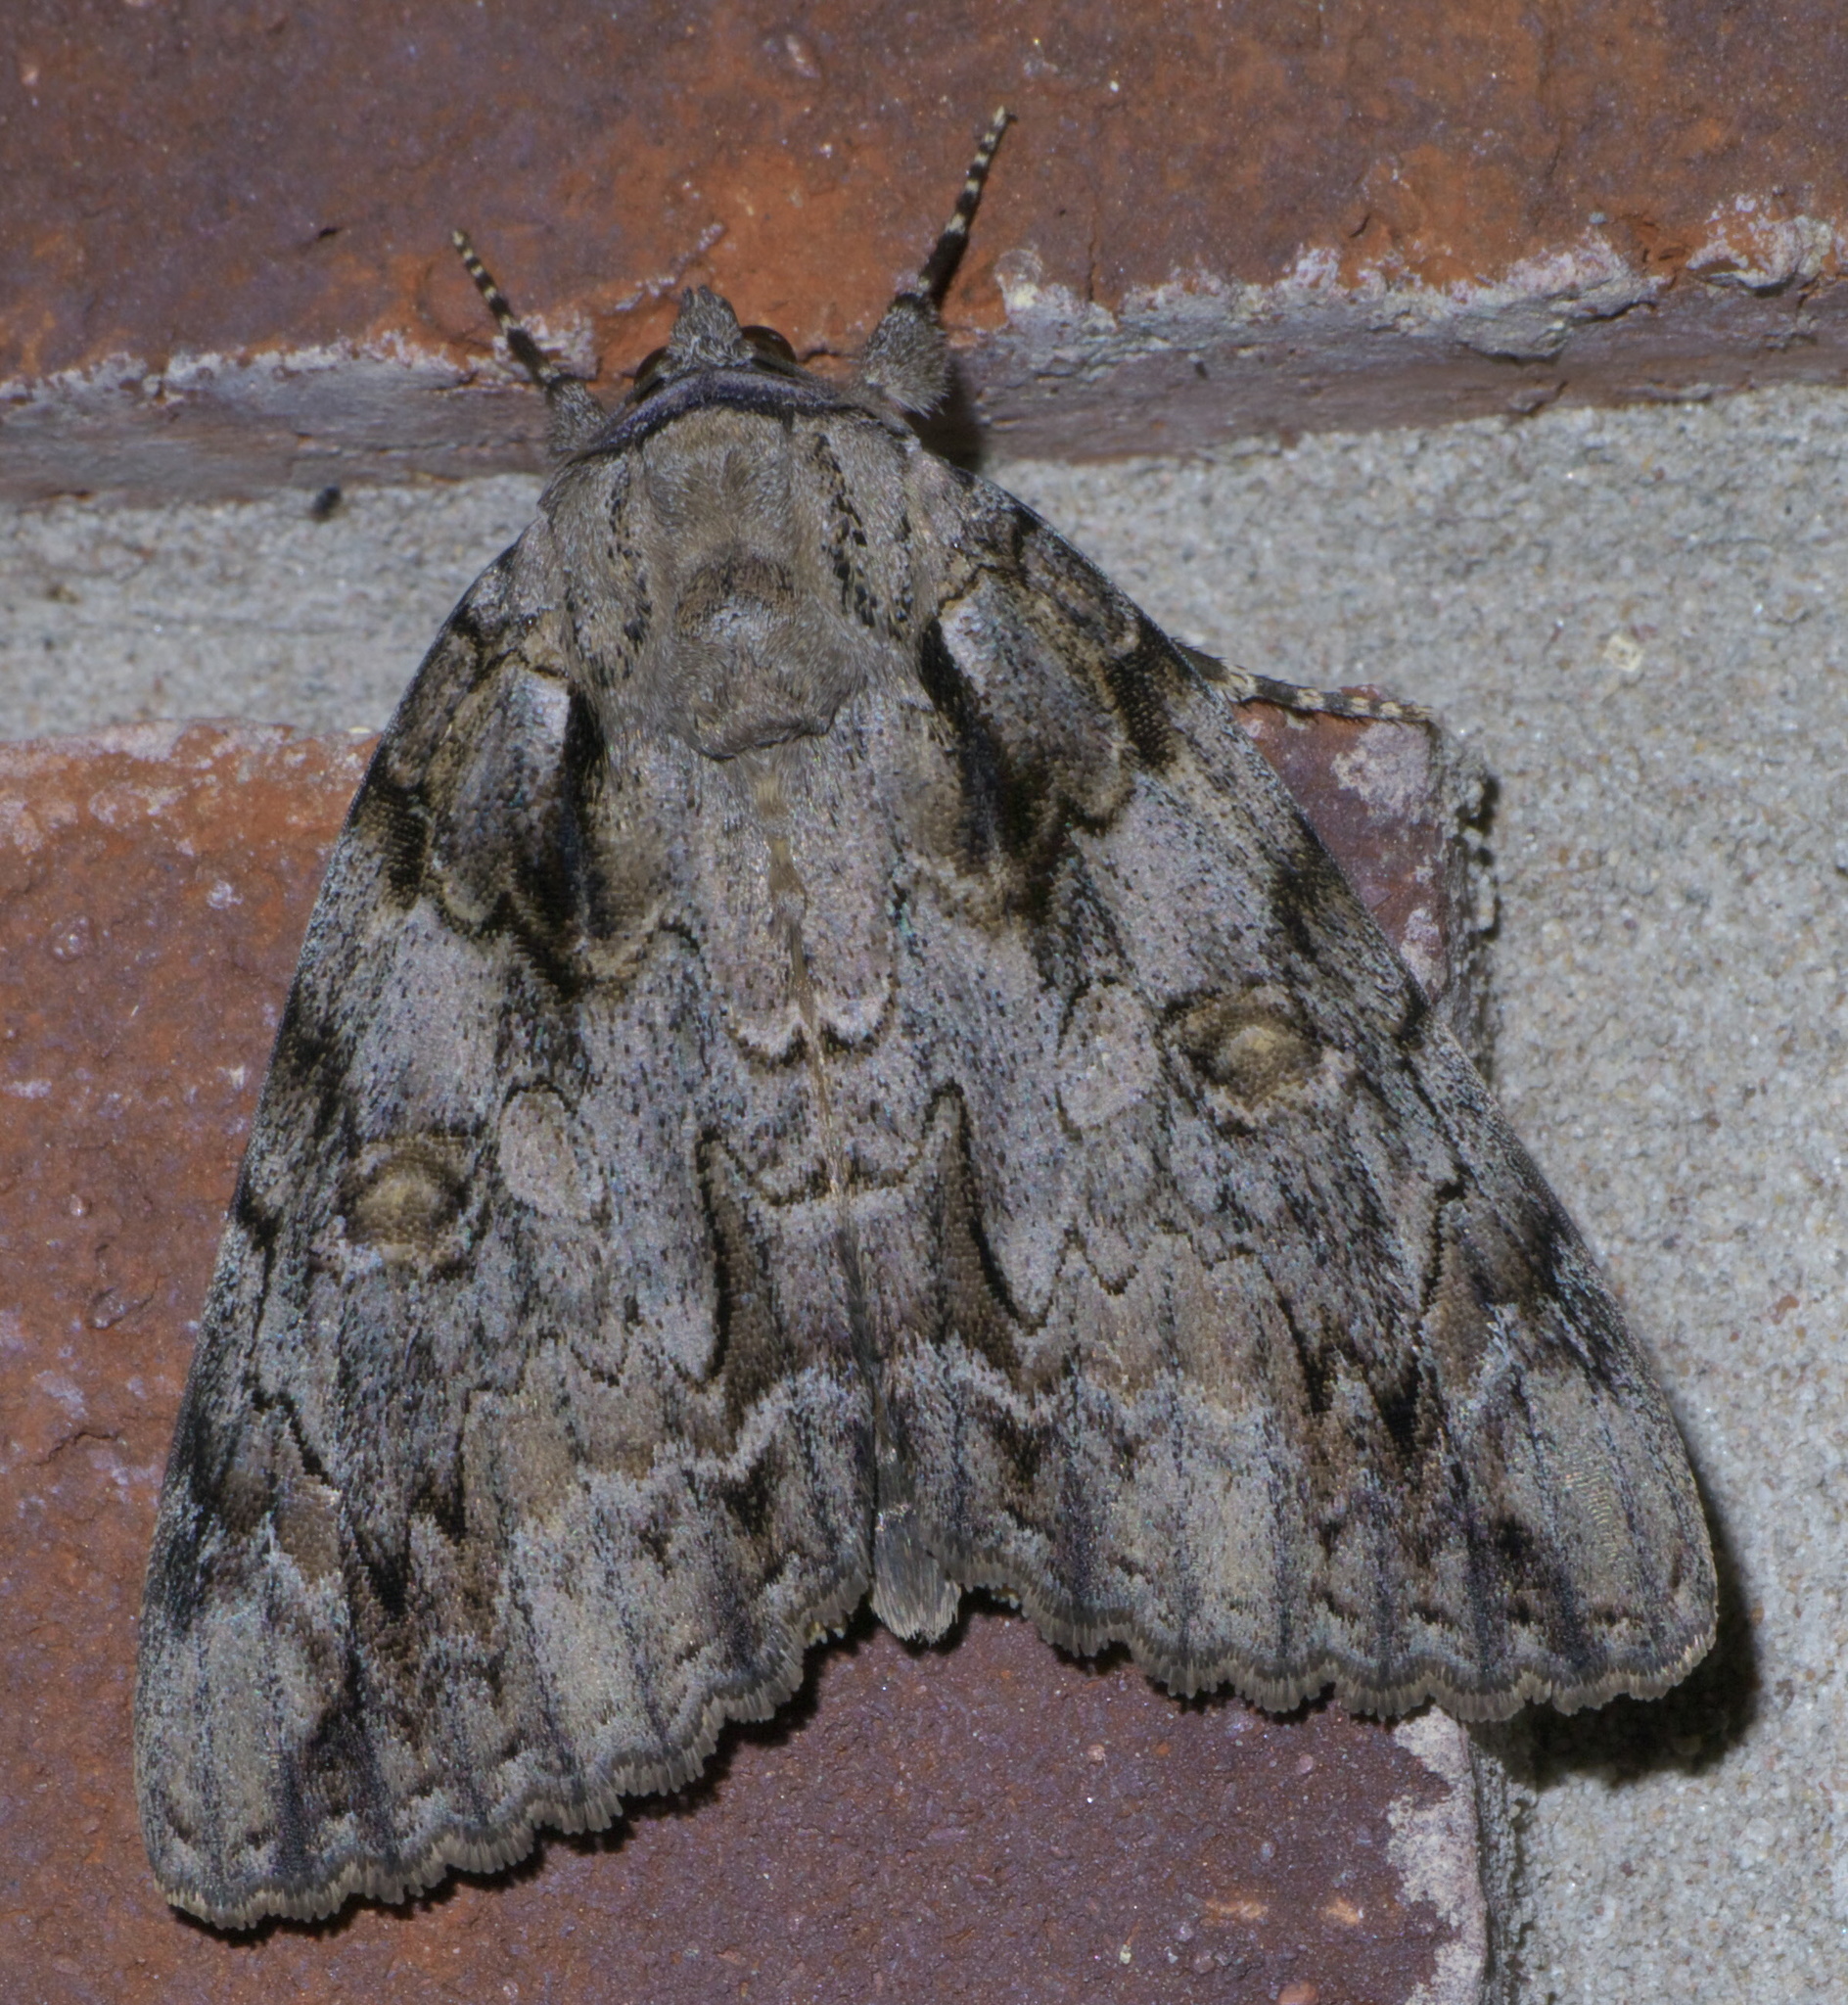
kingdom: Animalia
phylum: Arthropoda
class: Insecta
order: Lepidoptera
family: Erebidae
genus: Catocala
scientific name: Catocala neogama
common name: Bride underwing
